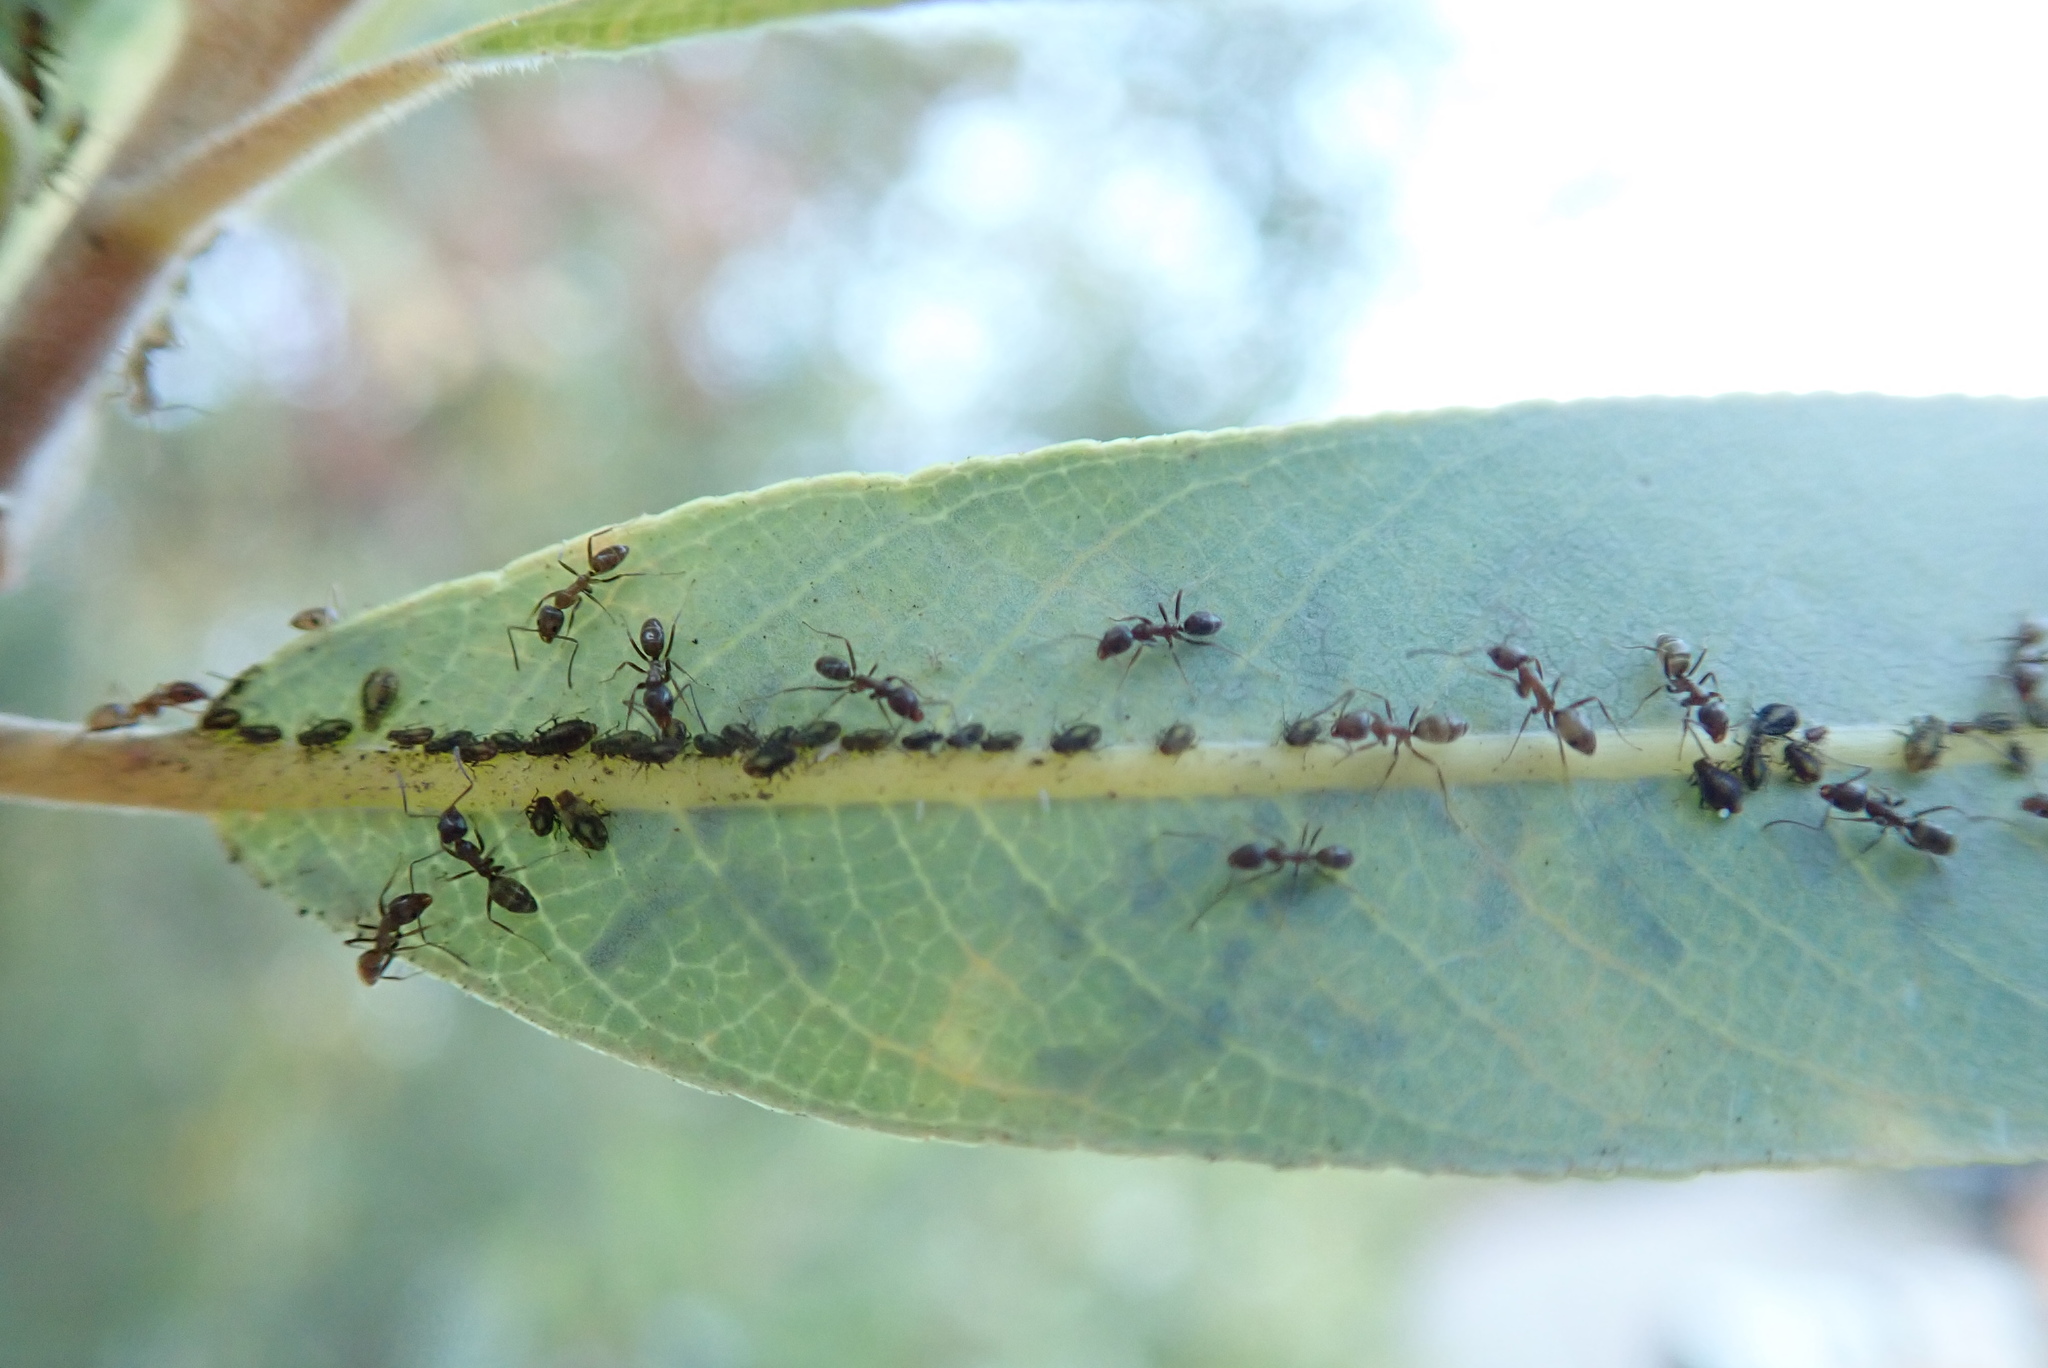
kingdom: Animalia
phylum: Arthropoda
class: Insecta
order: Hymenoptera
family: Formicidae
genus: Linepithema
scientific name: Linepithema humile
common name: Argentine ant
